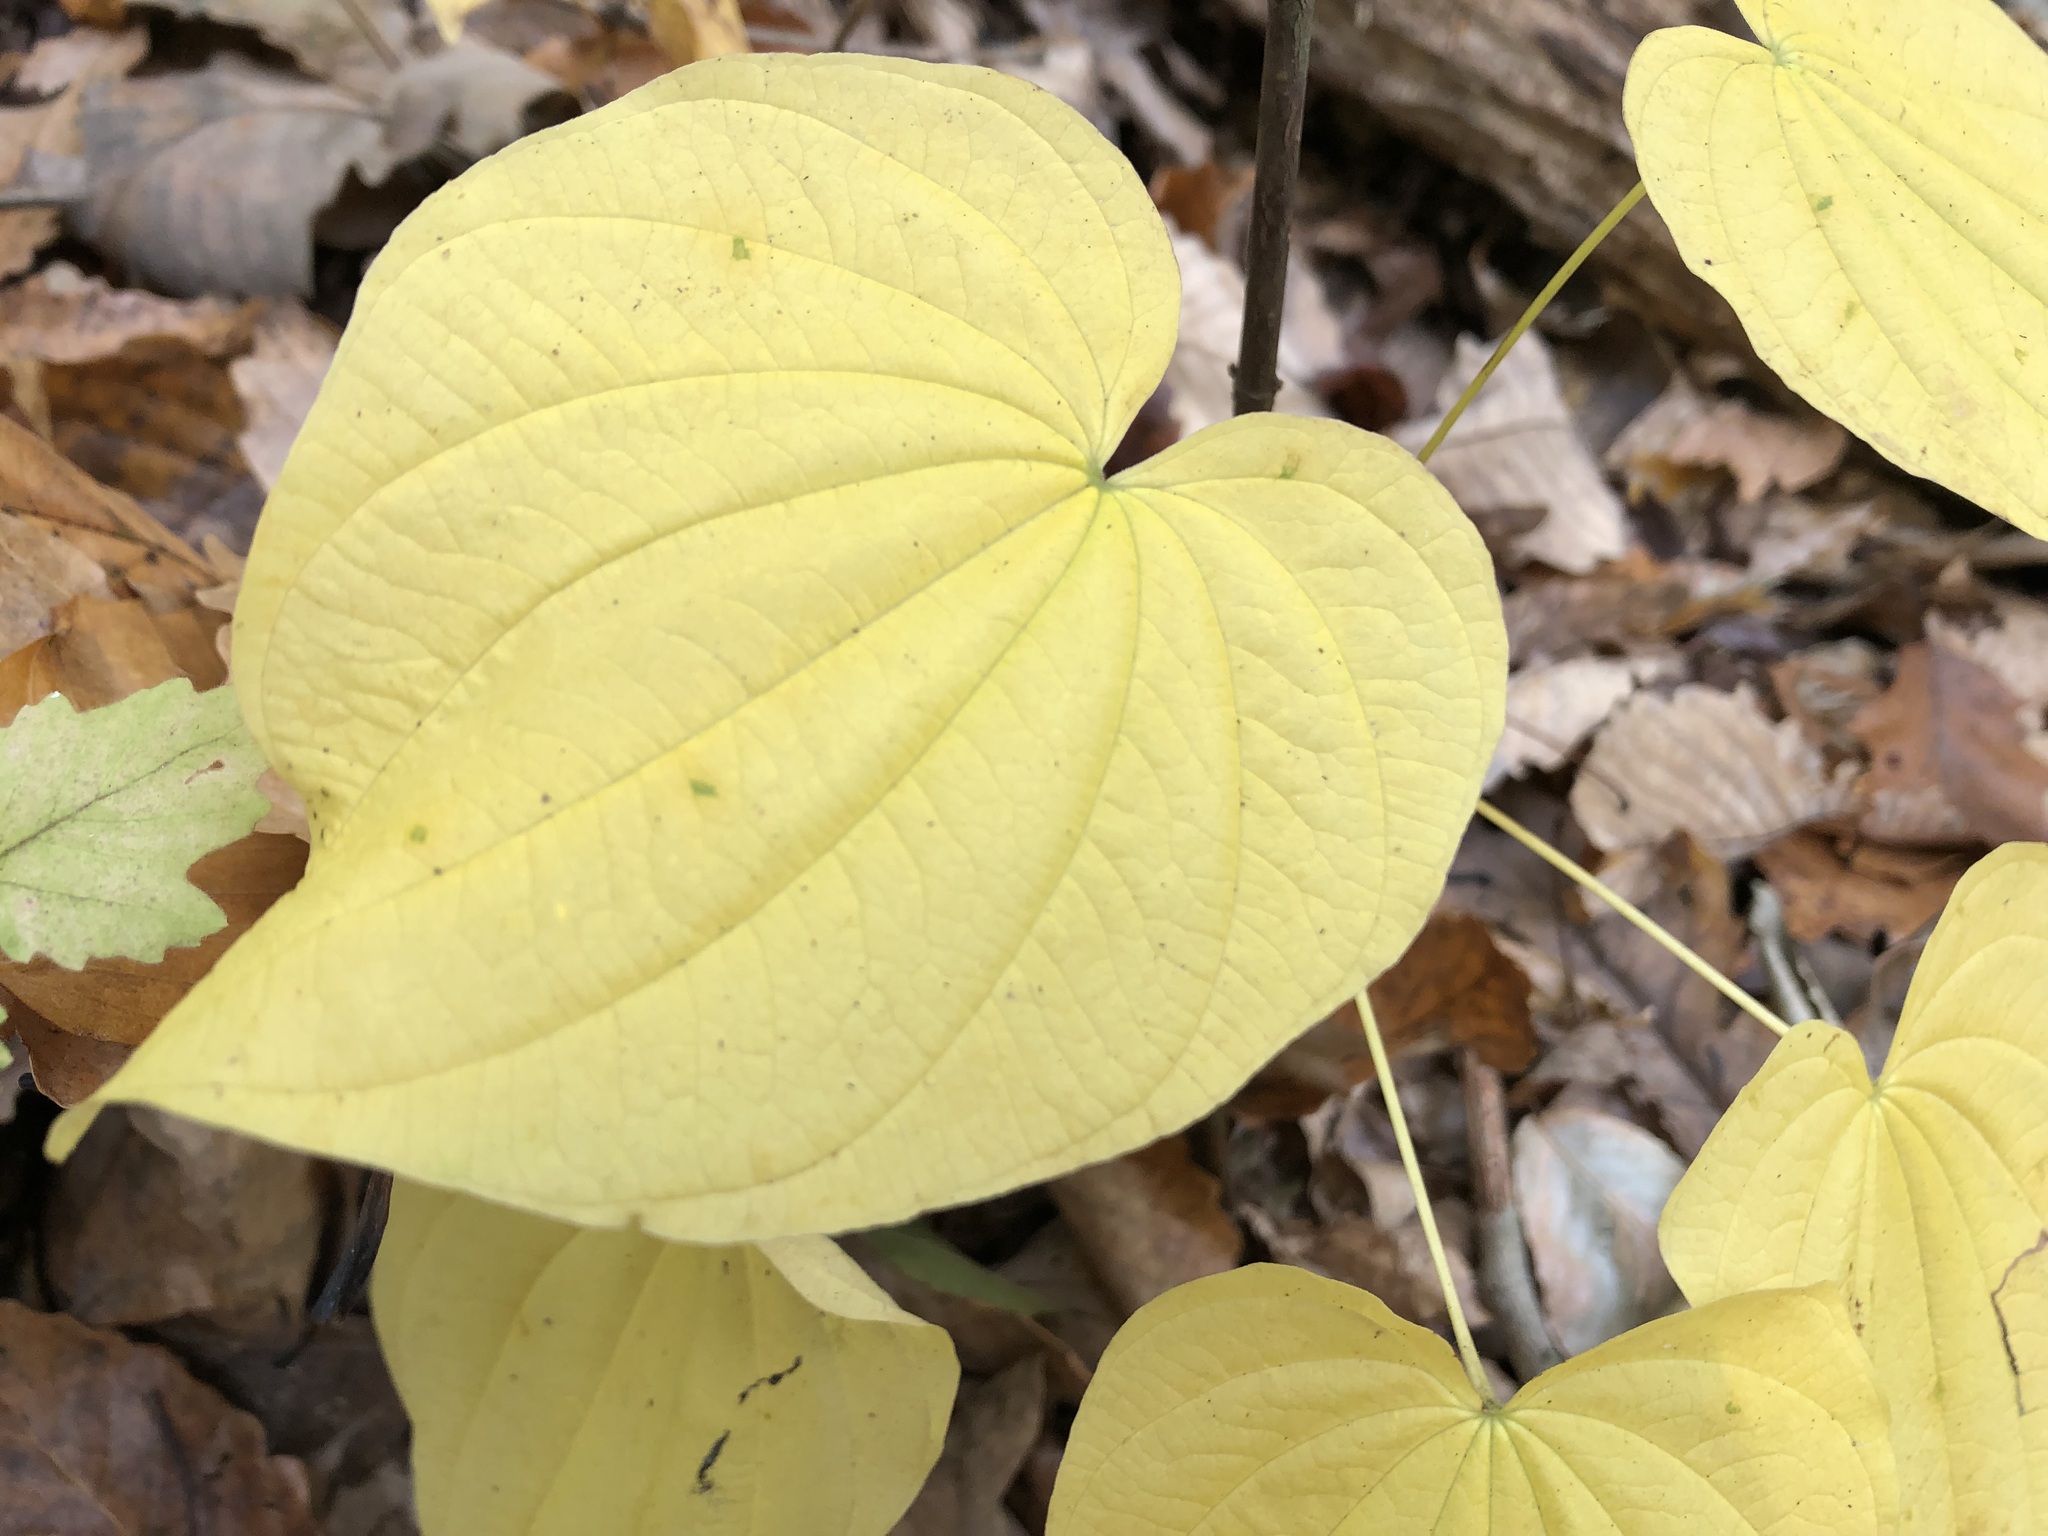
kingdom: Plantae
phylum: Tracheophyta
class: Liliopsida
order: Dioscoreales
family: Dioscoreaceae
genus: Dioscorea
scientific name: Dioscorea villosa
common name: Wild yam
